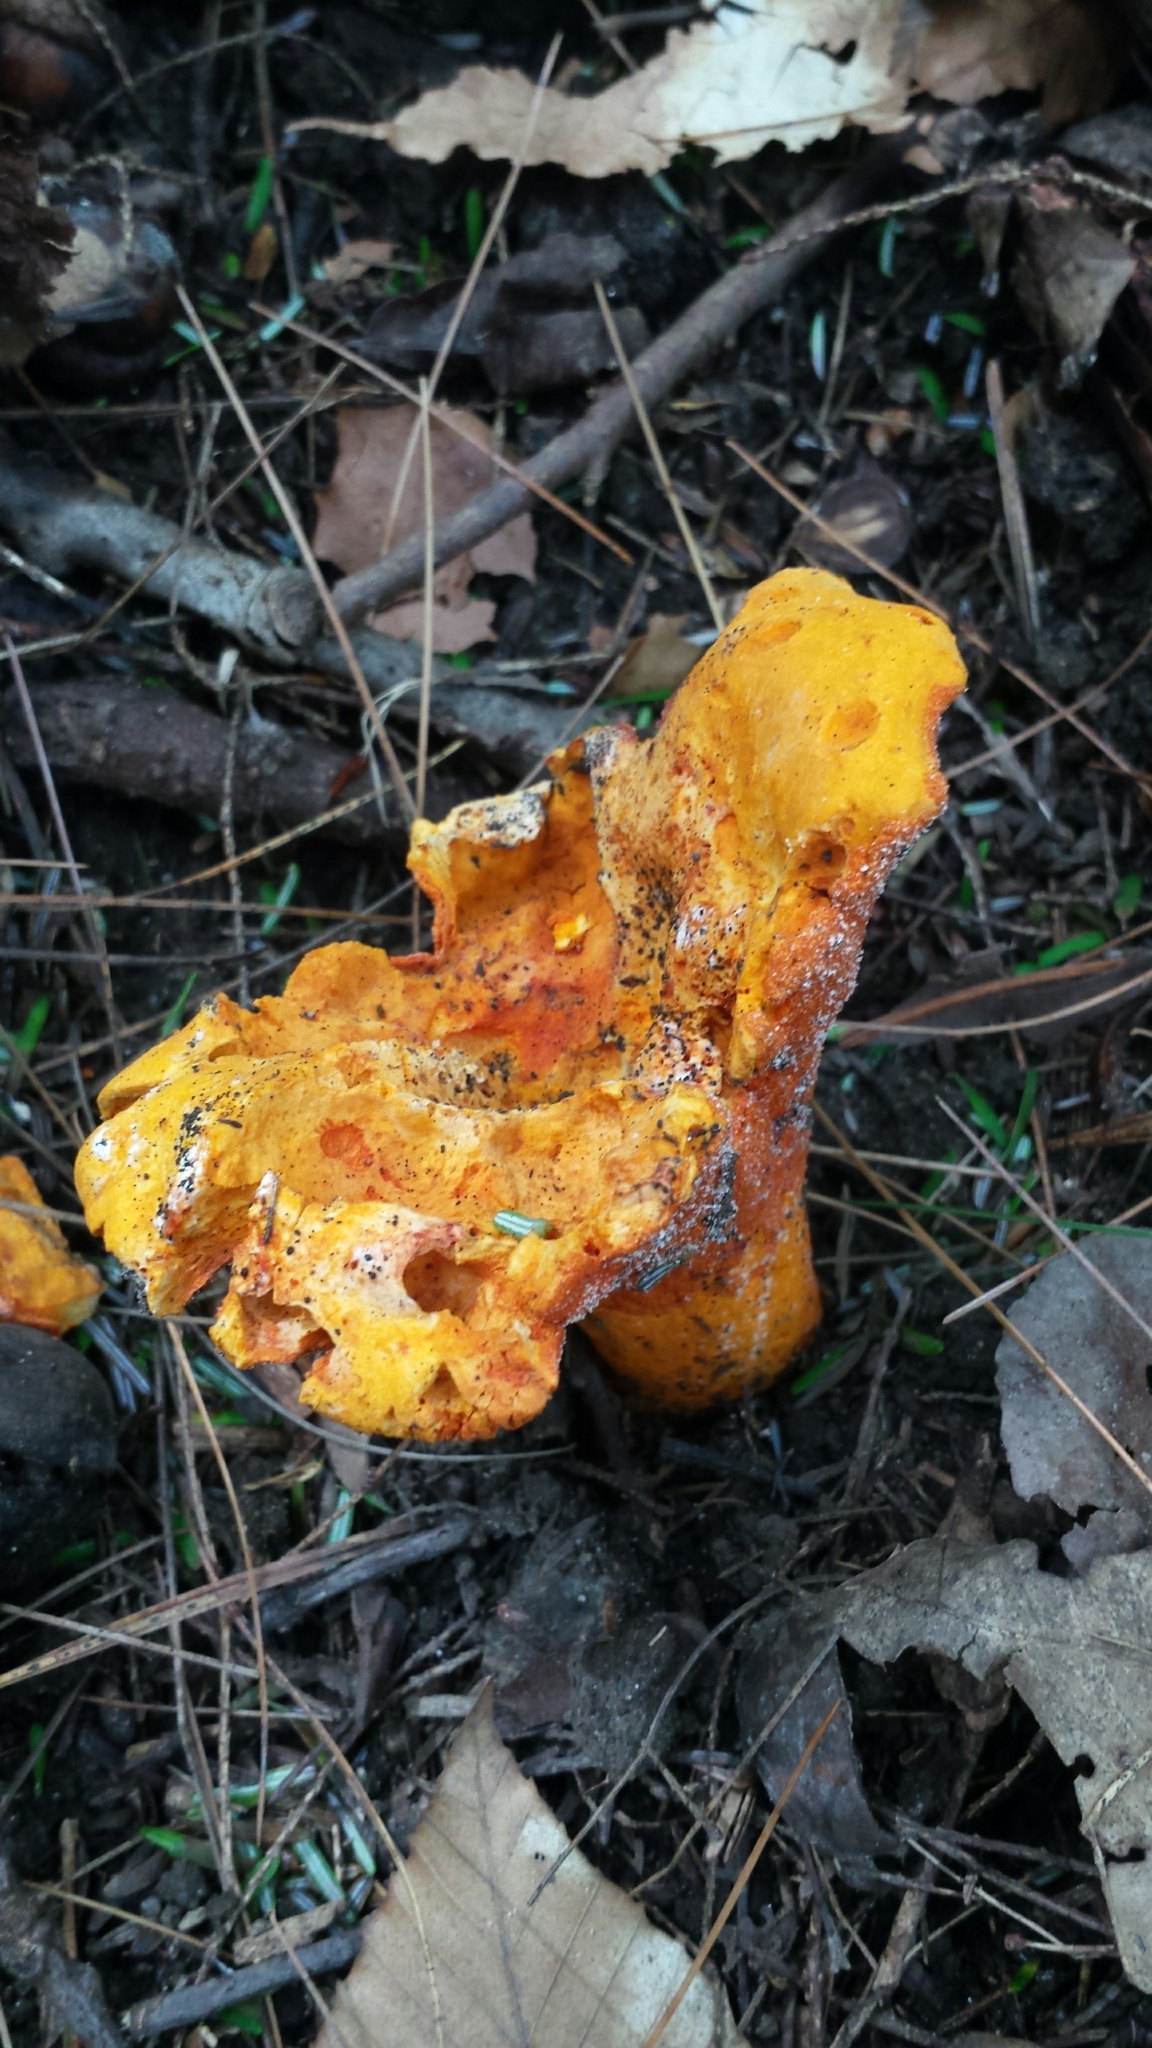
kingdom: Fungi
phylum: Ascomycota
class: Sordariomycetes
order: Hypocreales
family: Hypocreaceae
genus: Hypomyces
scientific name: Hypomyces lactifluorum
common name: Lobster mushroom
